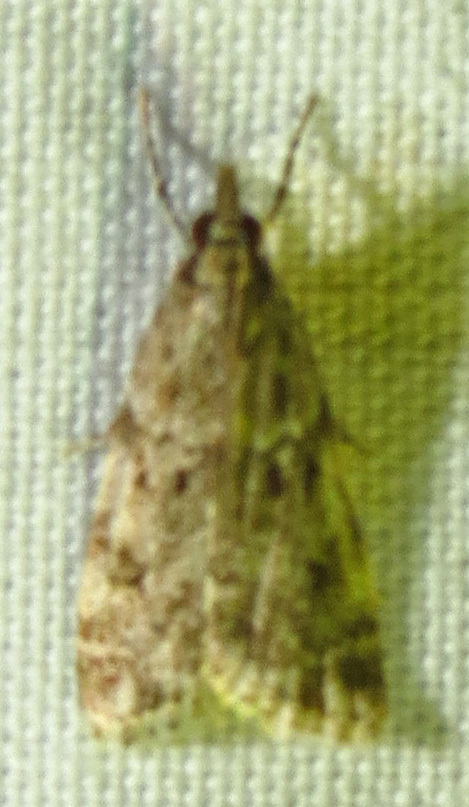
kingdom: Animalia
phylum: Arthropoda
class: Insecta
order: Lepidoptera
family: Crambidae
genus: Eudonia
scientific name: Eudonia heterosalis
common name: Mcdunnough's eudonia
